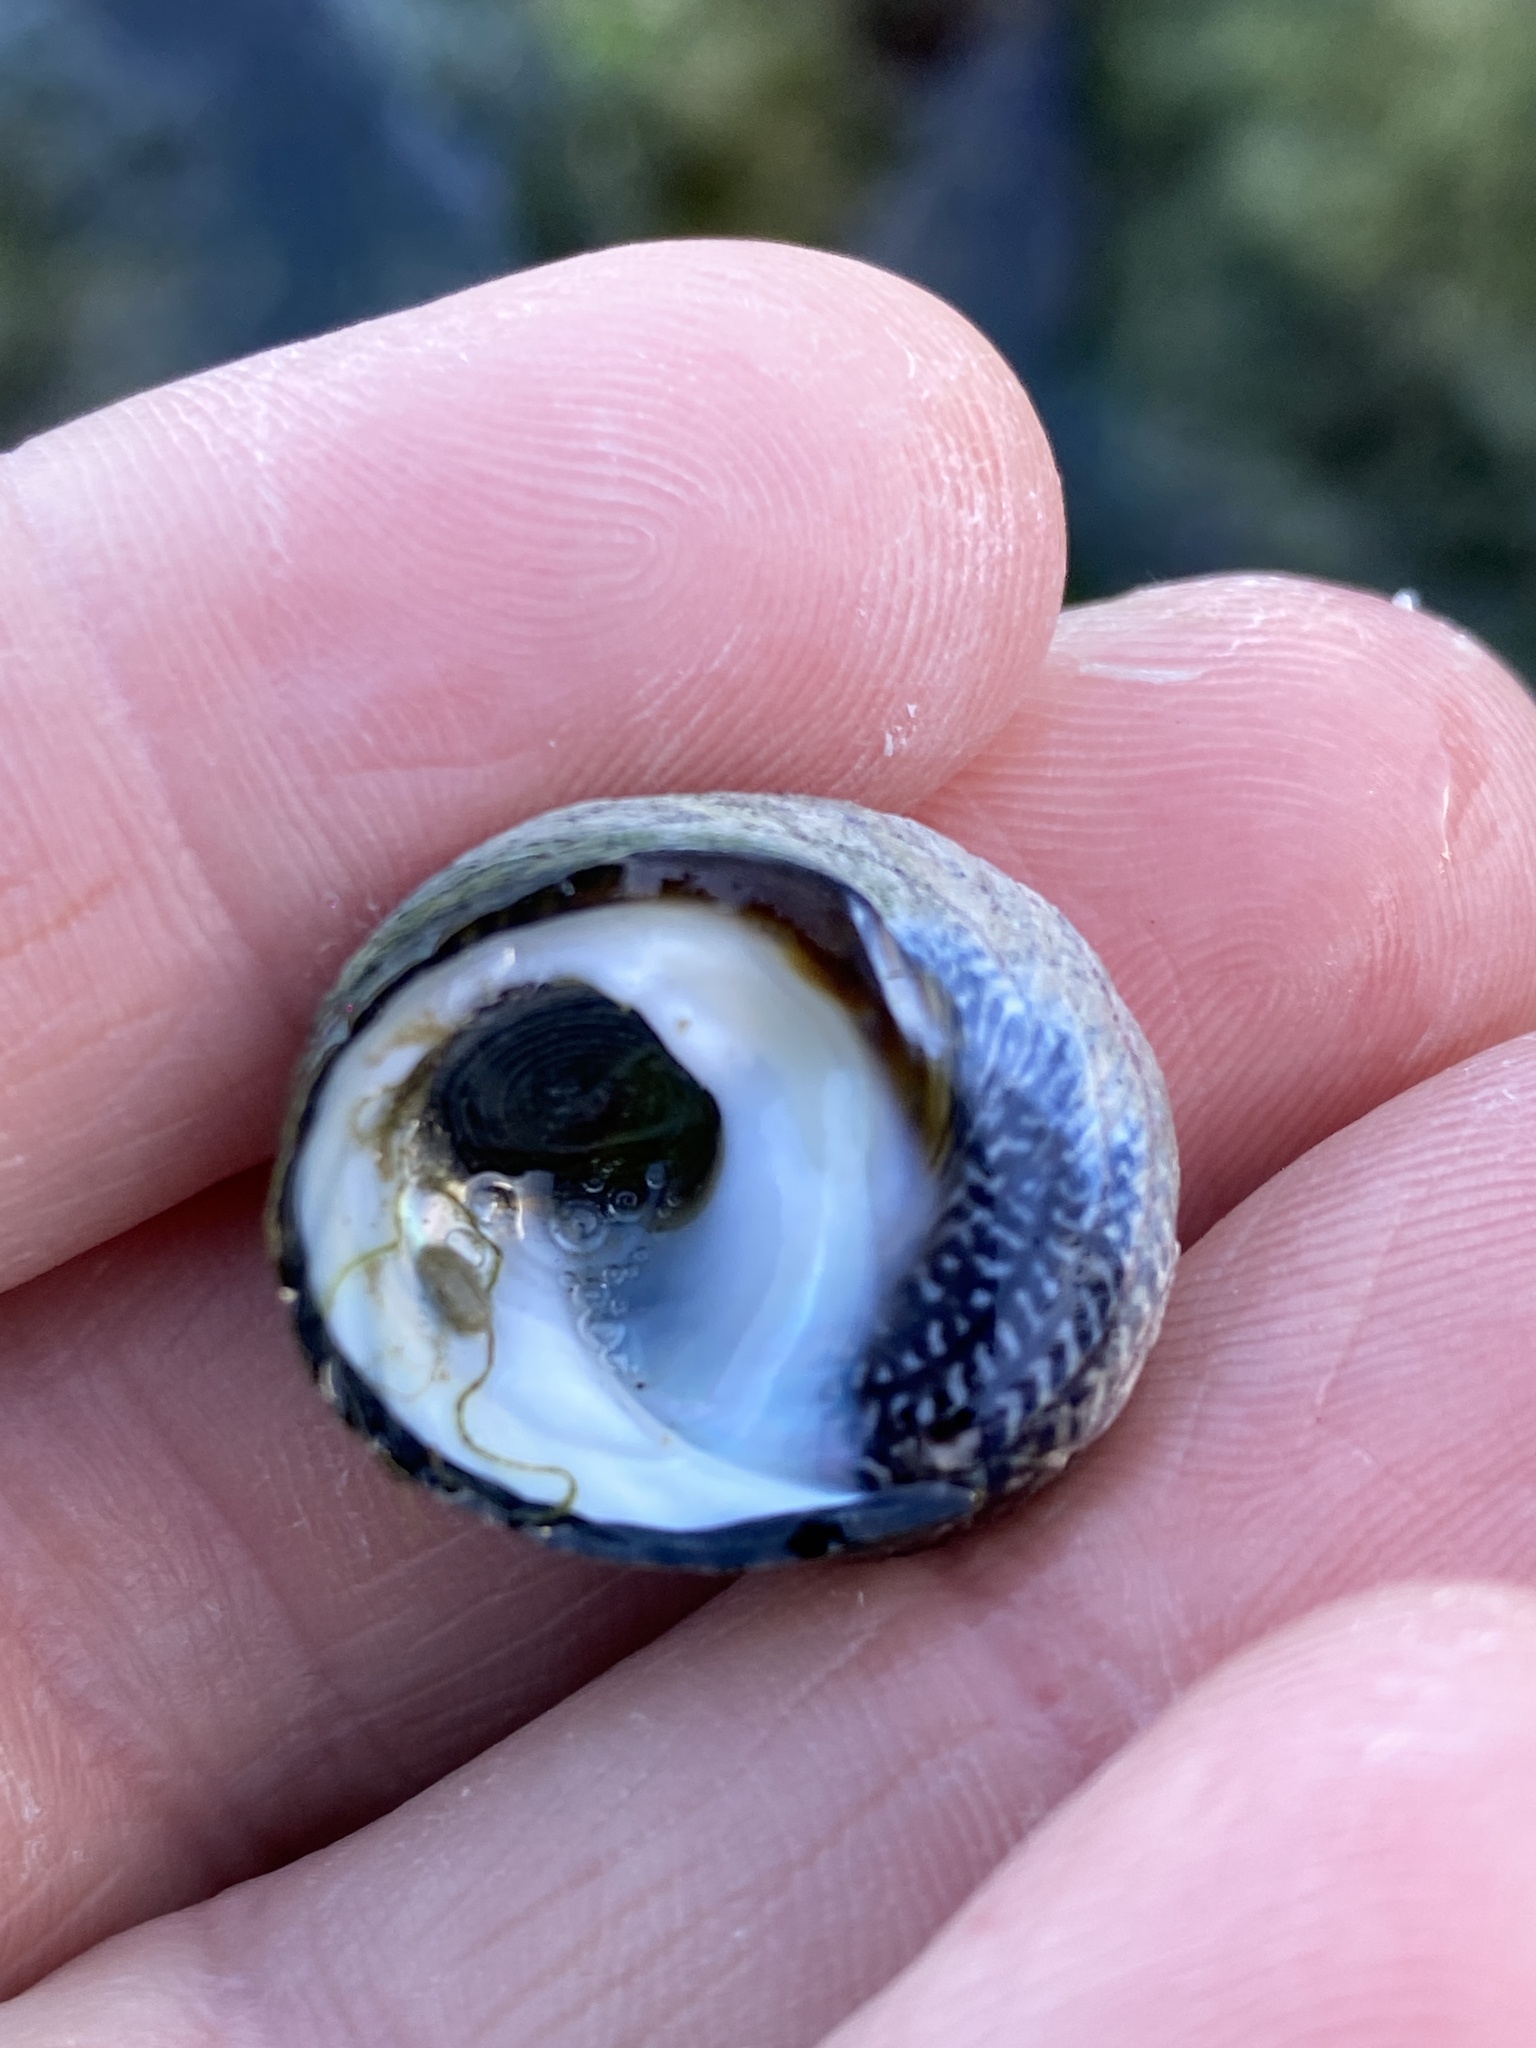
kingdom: Animalia
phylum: Mollusca
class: Gastropoda
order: Trochida
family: Trochidae
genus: Diloma
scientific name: Diloma aethiops
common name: Scorched monodont
